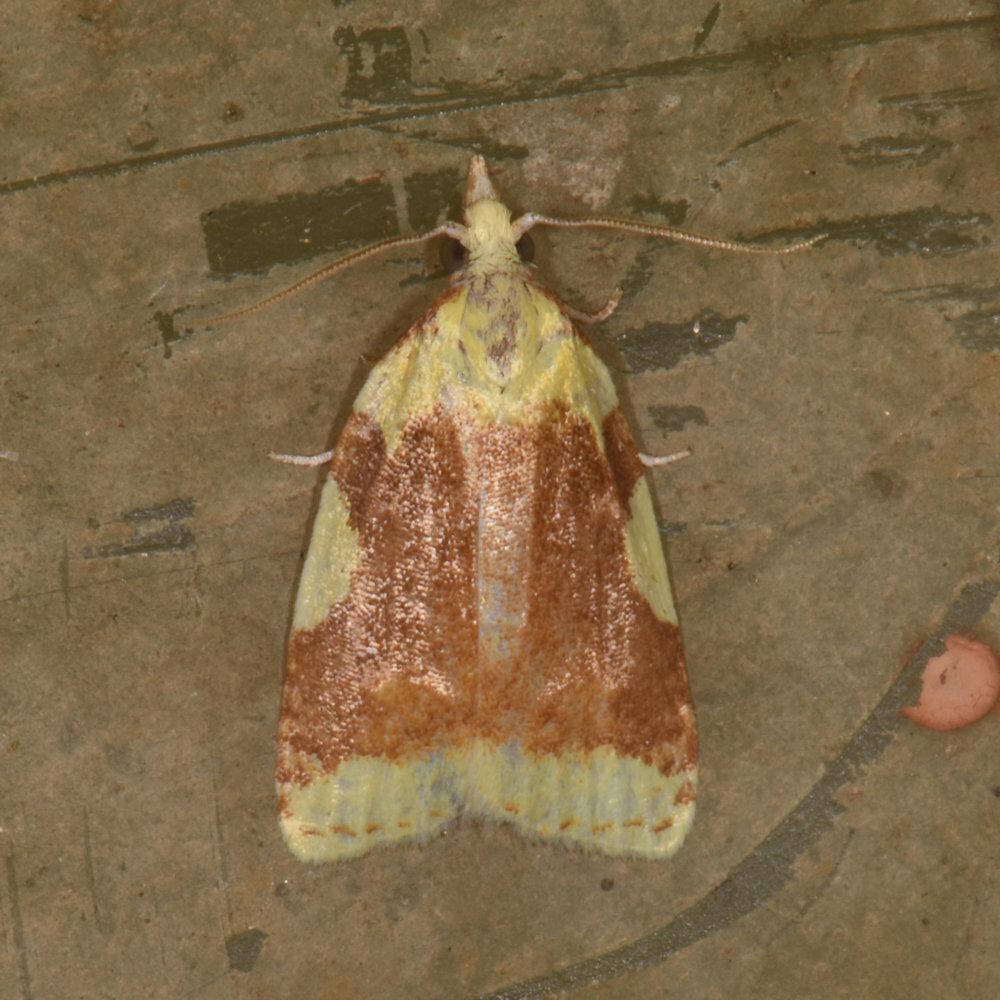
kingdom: Animalia
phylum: Arthropoda
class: Insecta
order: Lepidoptera
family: Tortricidae
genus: Cenopis
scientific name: Cenopis niveana
